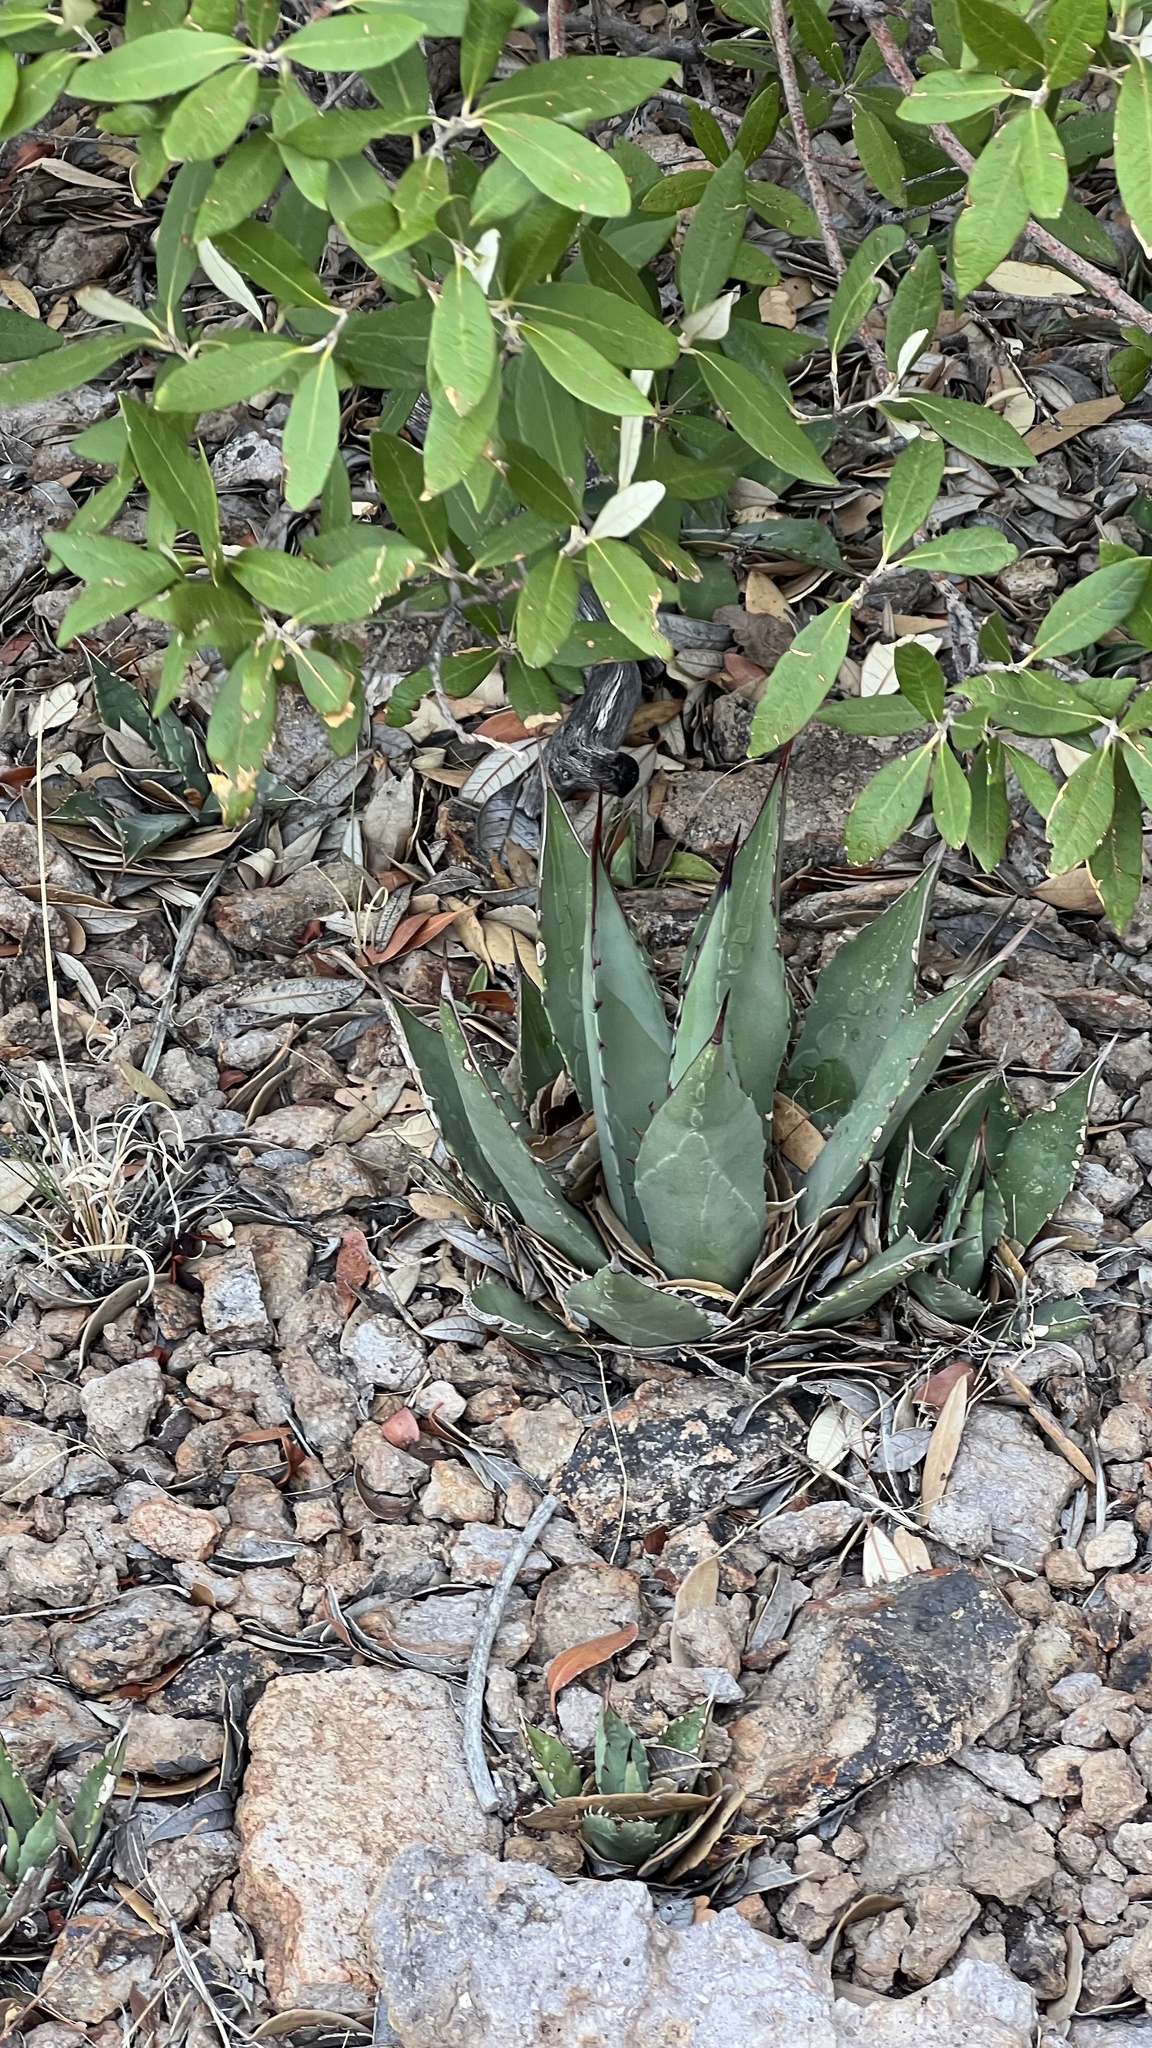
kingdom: Plantae
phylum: Tracheophyta
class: Liliopsida
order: Asparagales
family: Asparagaceae
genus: Agave
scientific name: Agave parryi
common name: Parry's agave
